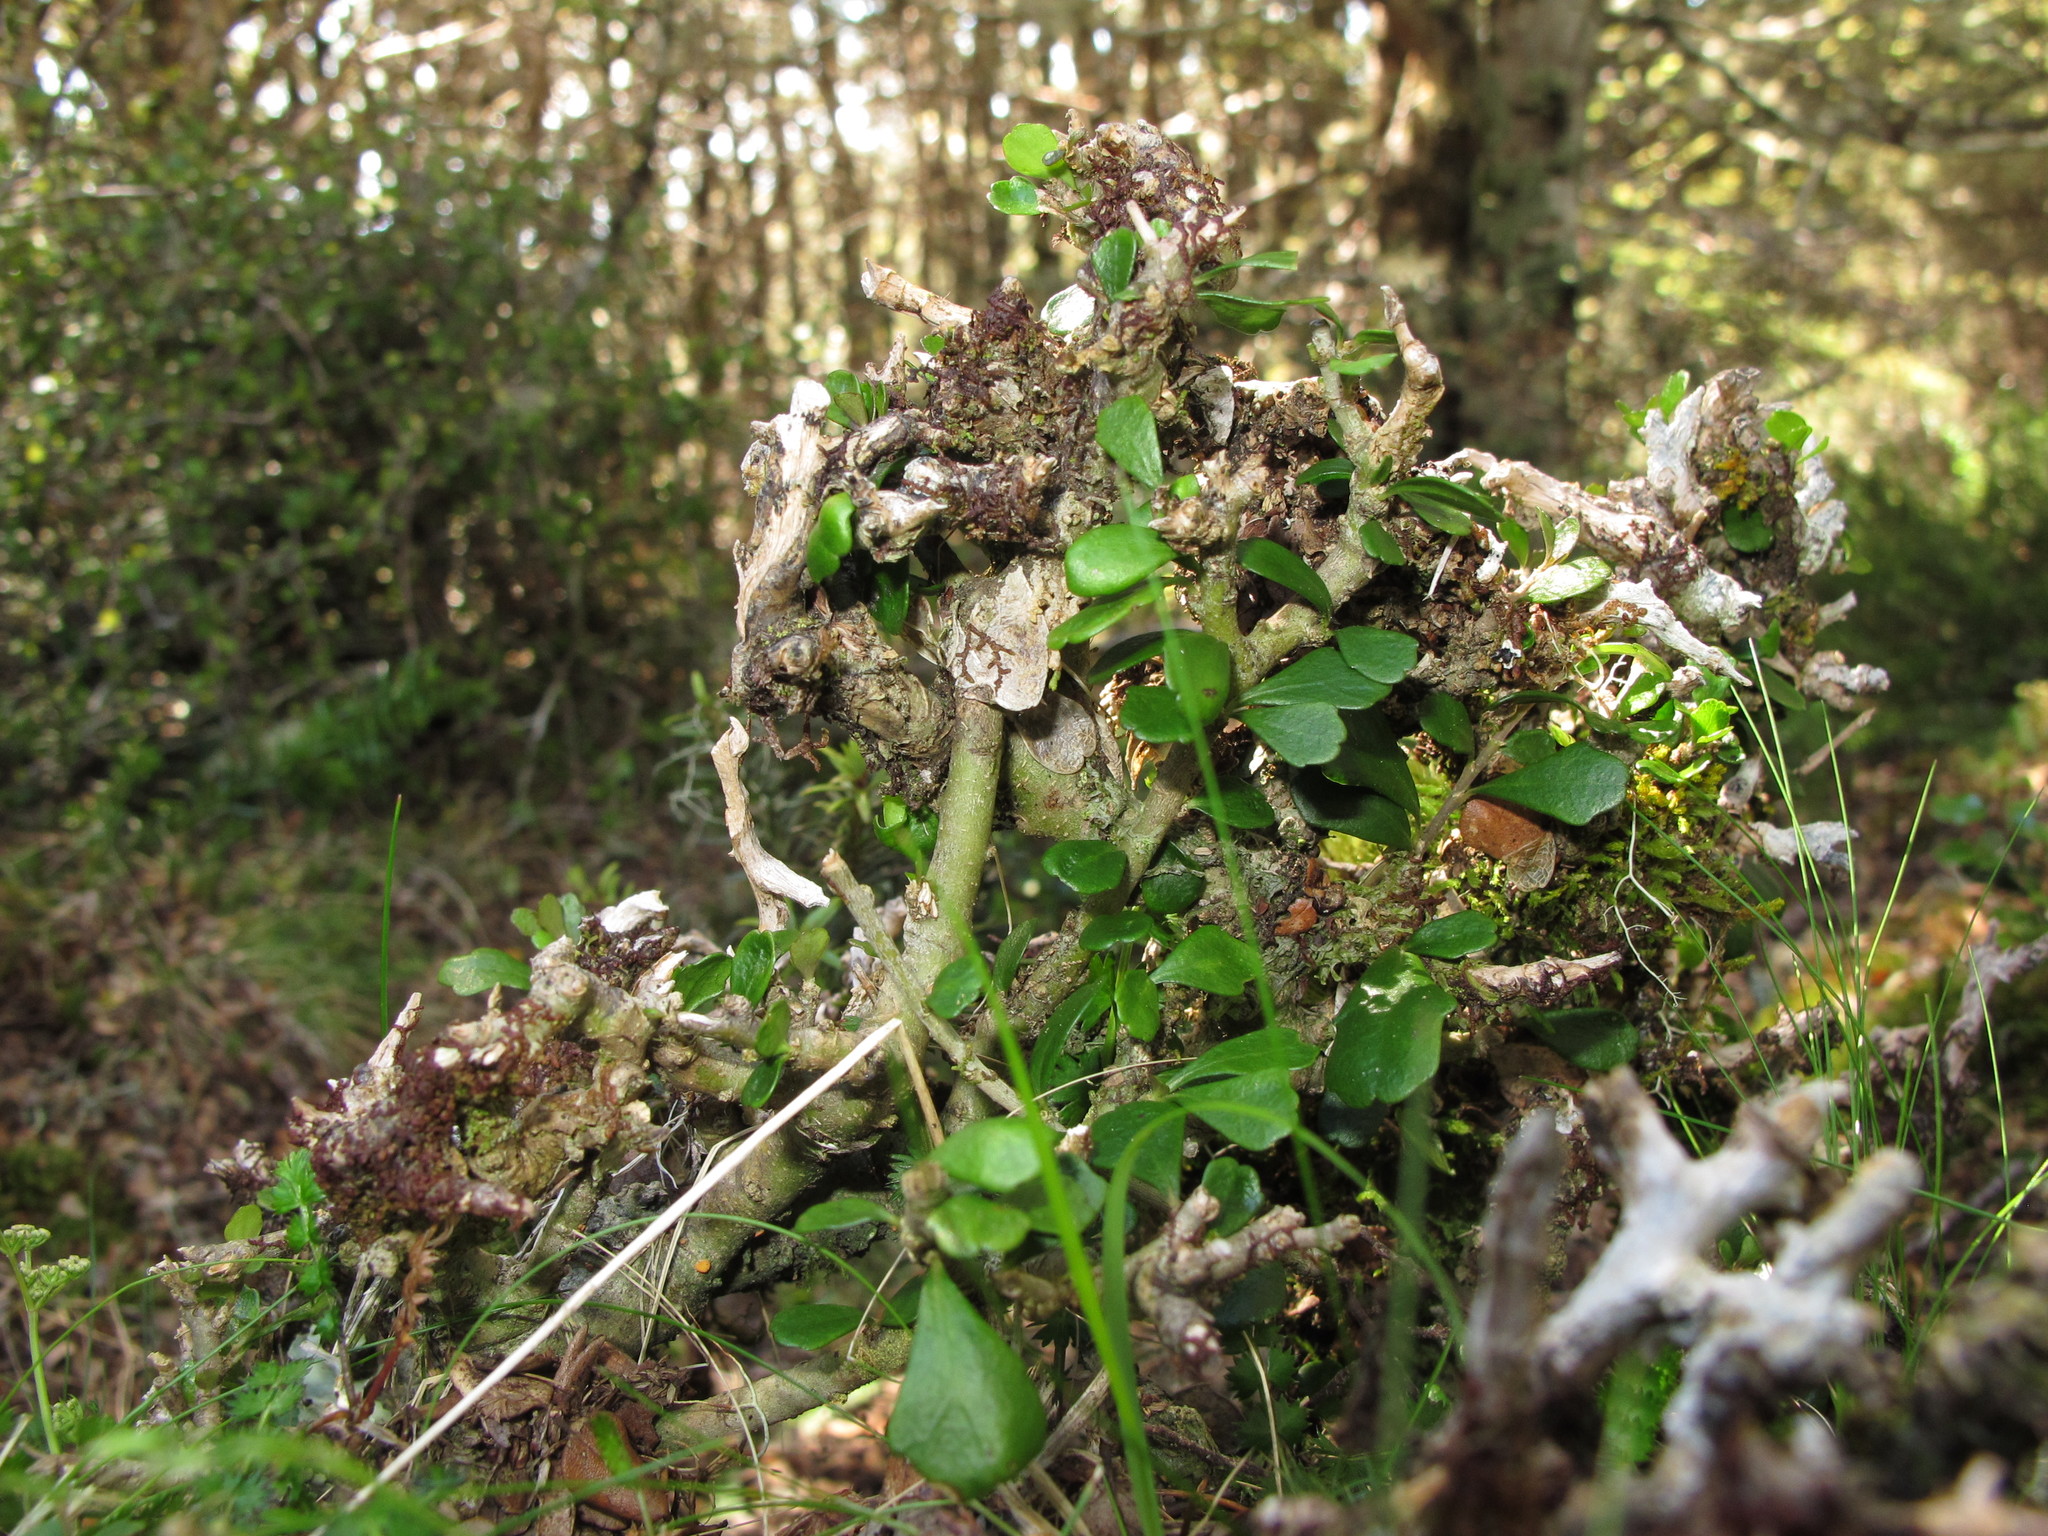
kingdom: Plantae
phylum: Tracheophyta
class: Magnoliopsida
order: Malpighiales
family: Violaceae
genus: Melicytus
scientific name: Melicytus alpinus
